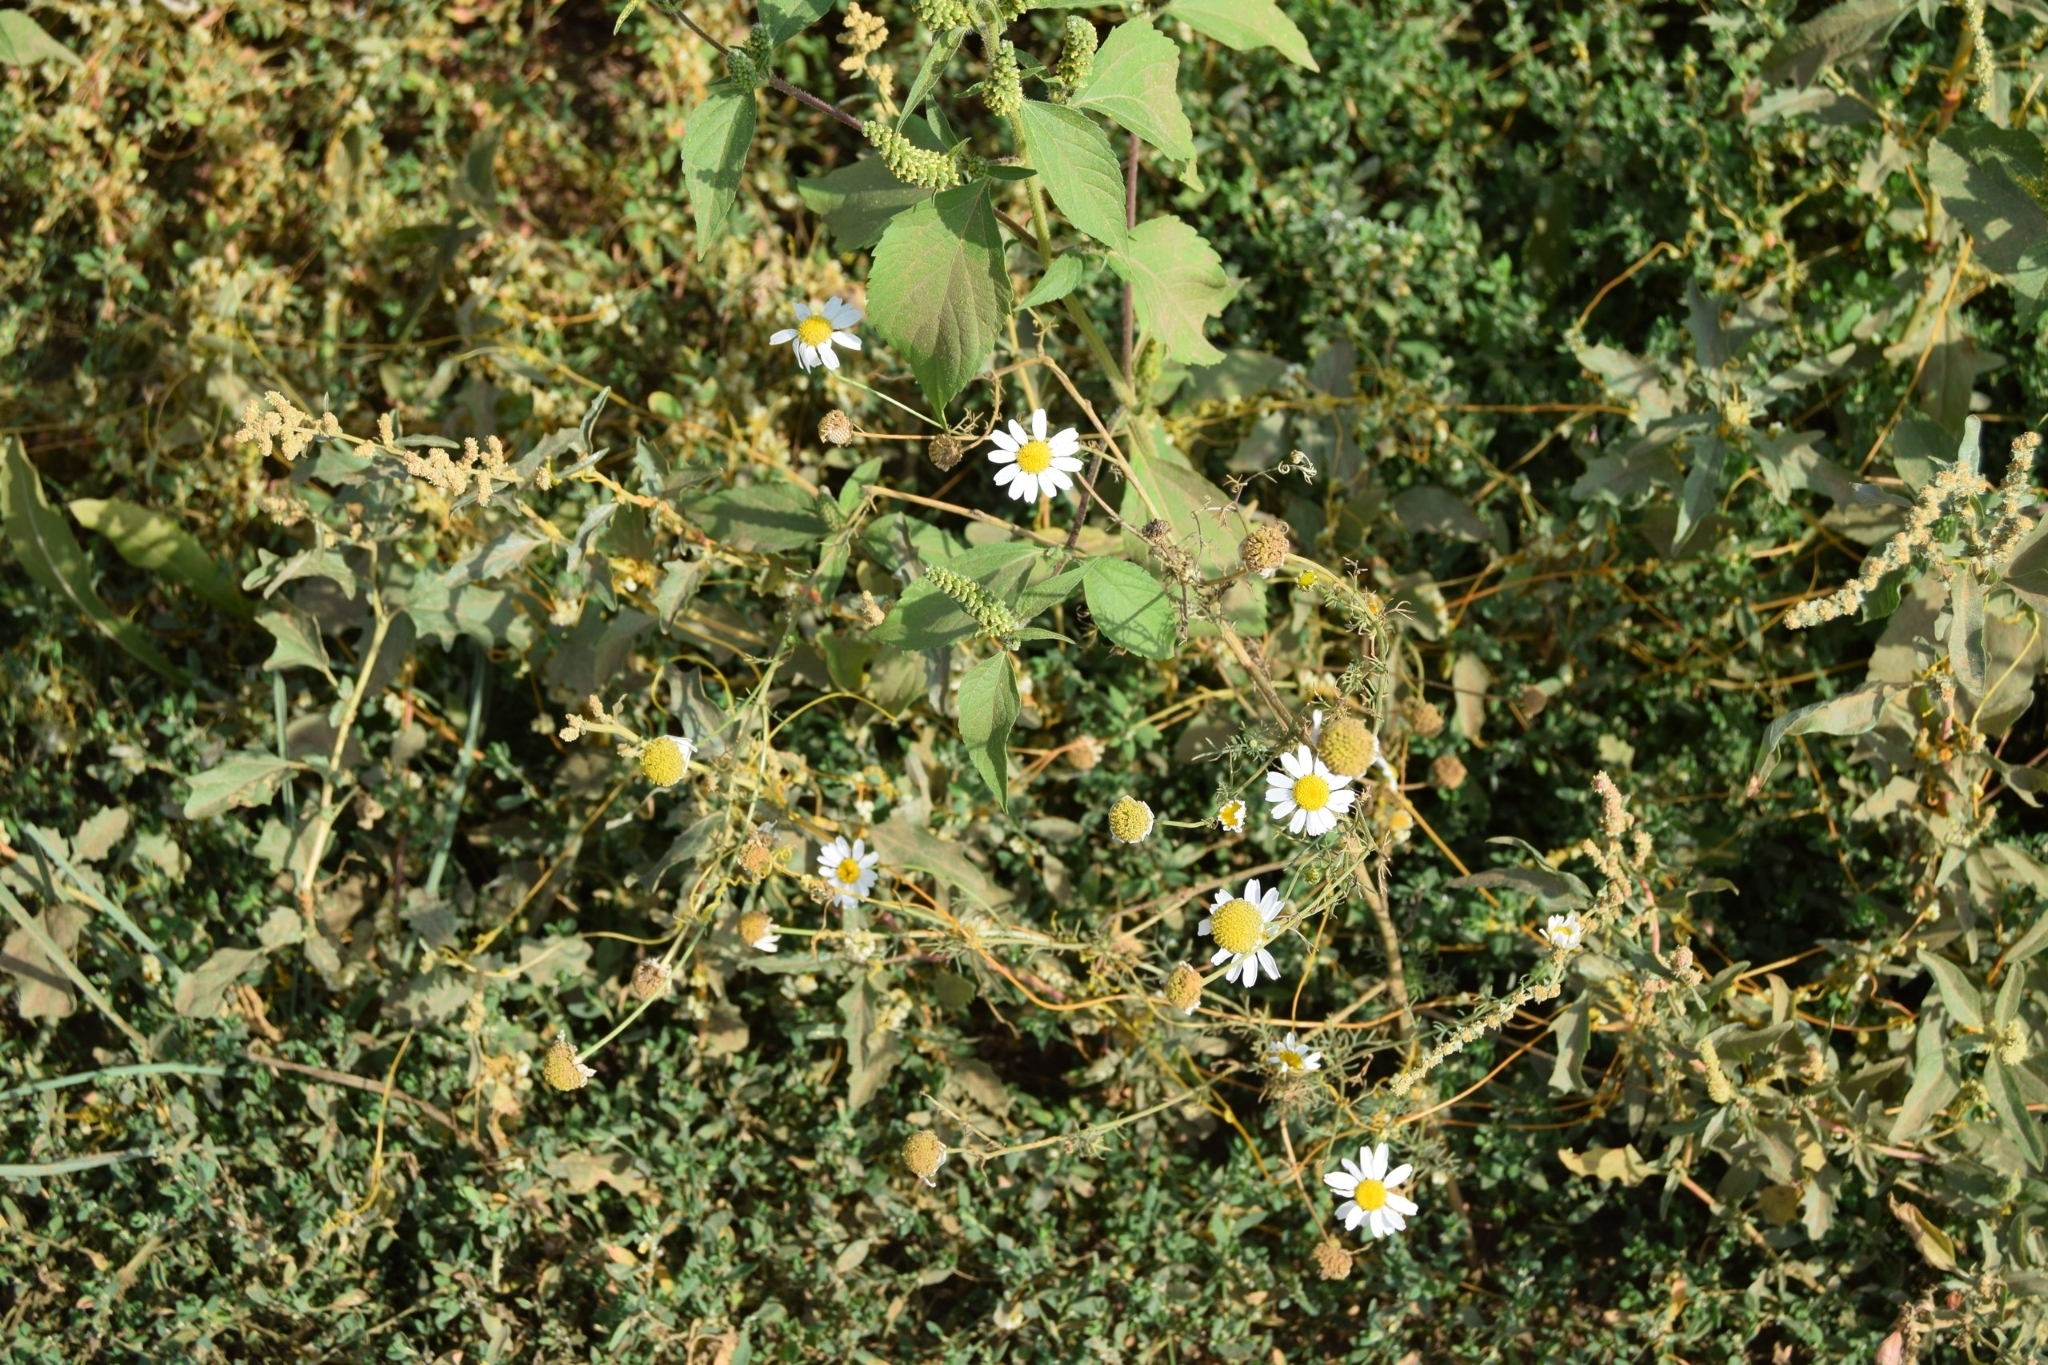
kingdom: Plantae
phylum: Tracheophyta
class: Magnoliopsida
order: Asterales
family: Asteraceae
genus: Tripleurospermum
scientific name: Tripleurospermum inodorum
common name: Scentless mayweed
